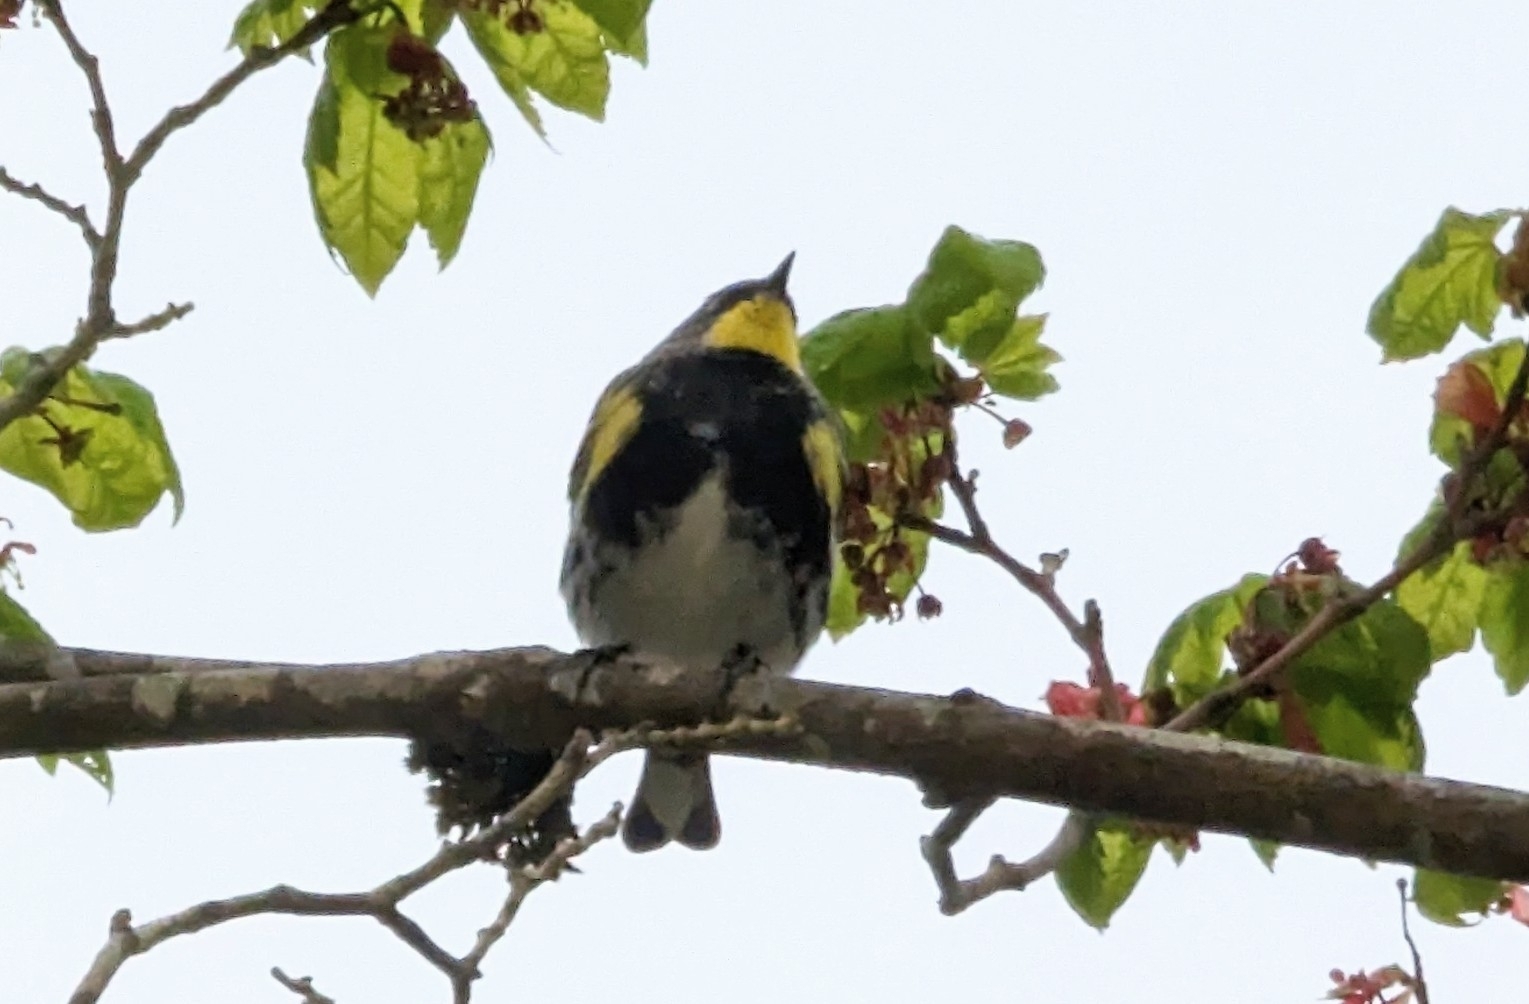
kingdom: Animalia
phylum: Chordata
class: Aves
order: Passeriformes
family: Parulidae
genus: Setophaga
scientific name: Setophaga auduboni
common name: Audubon's warbler
